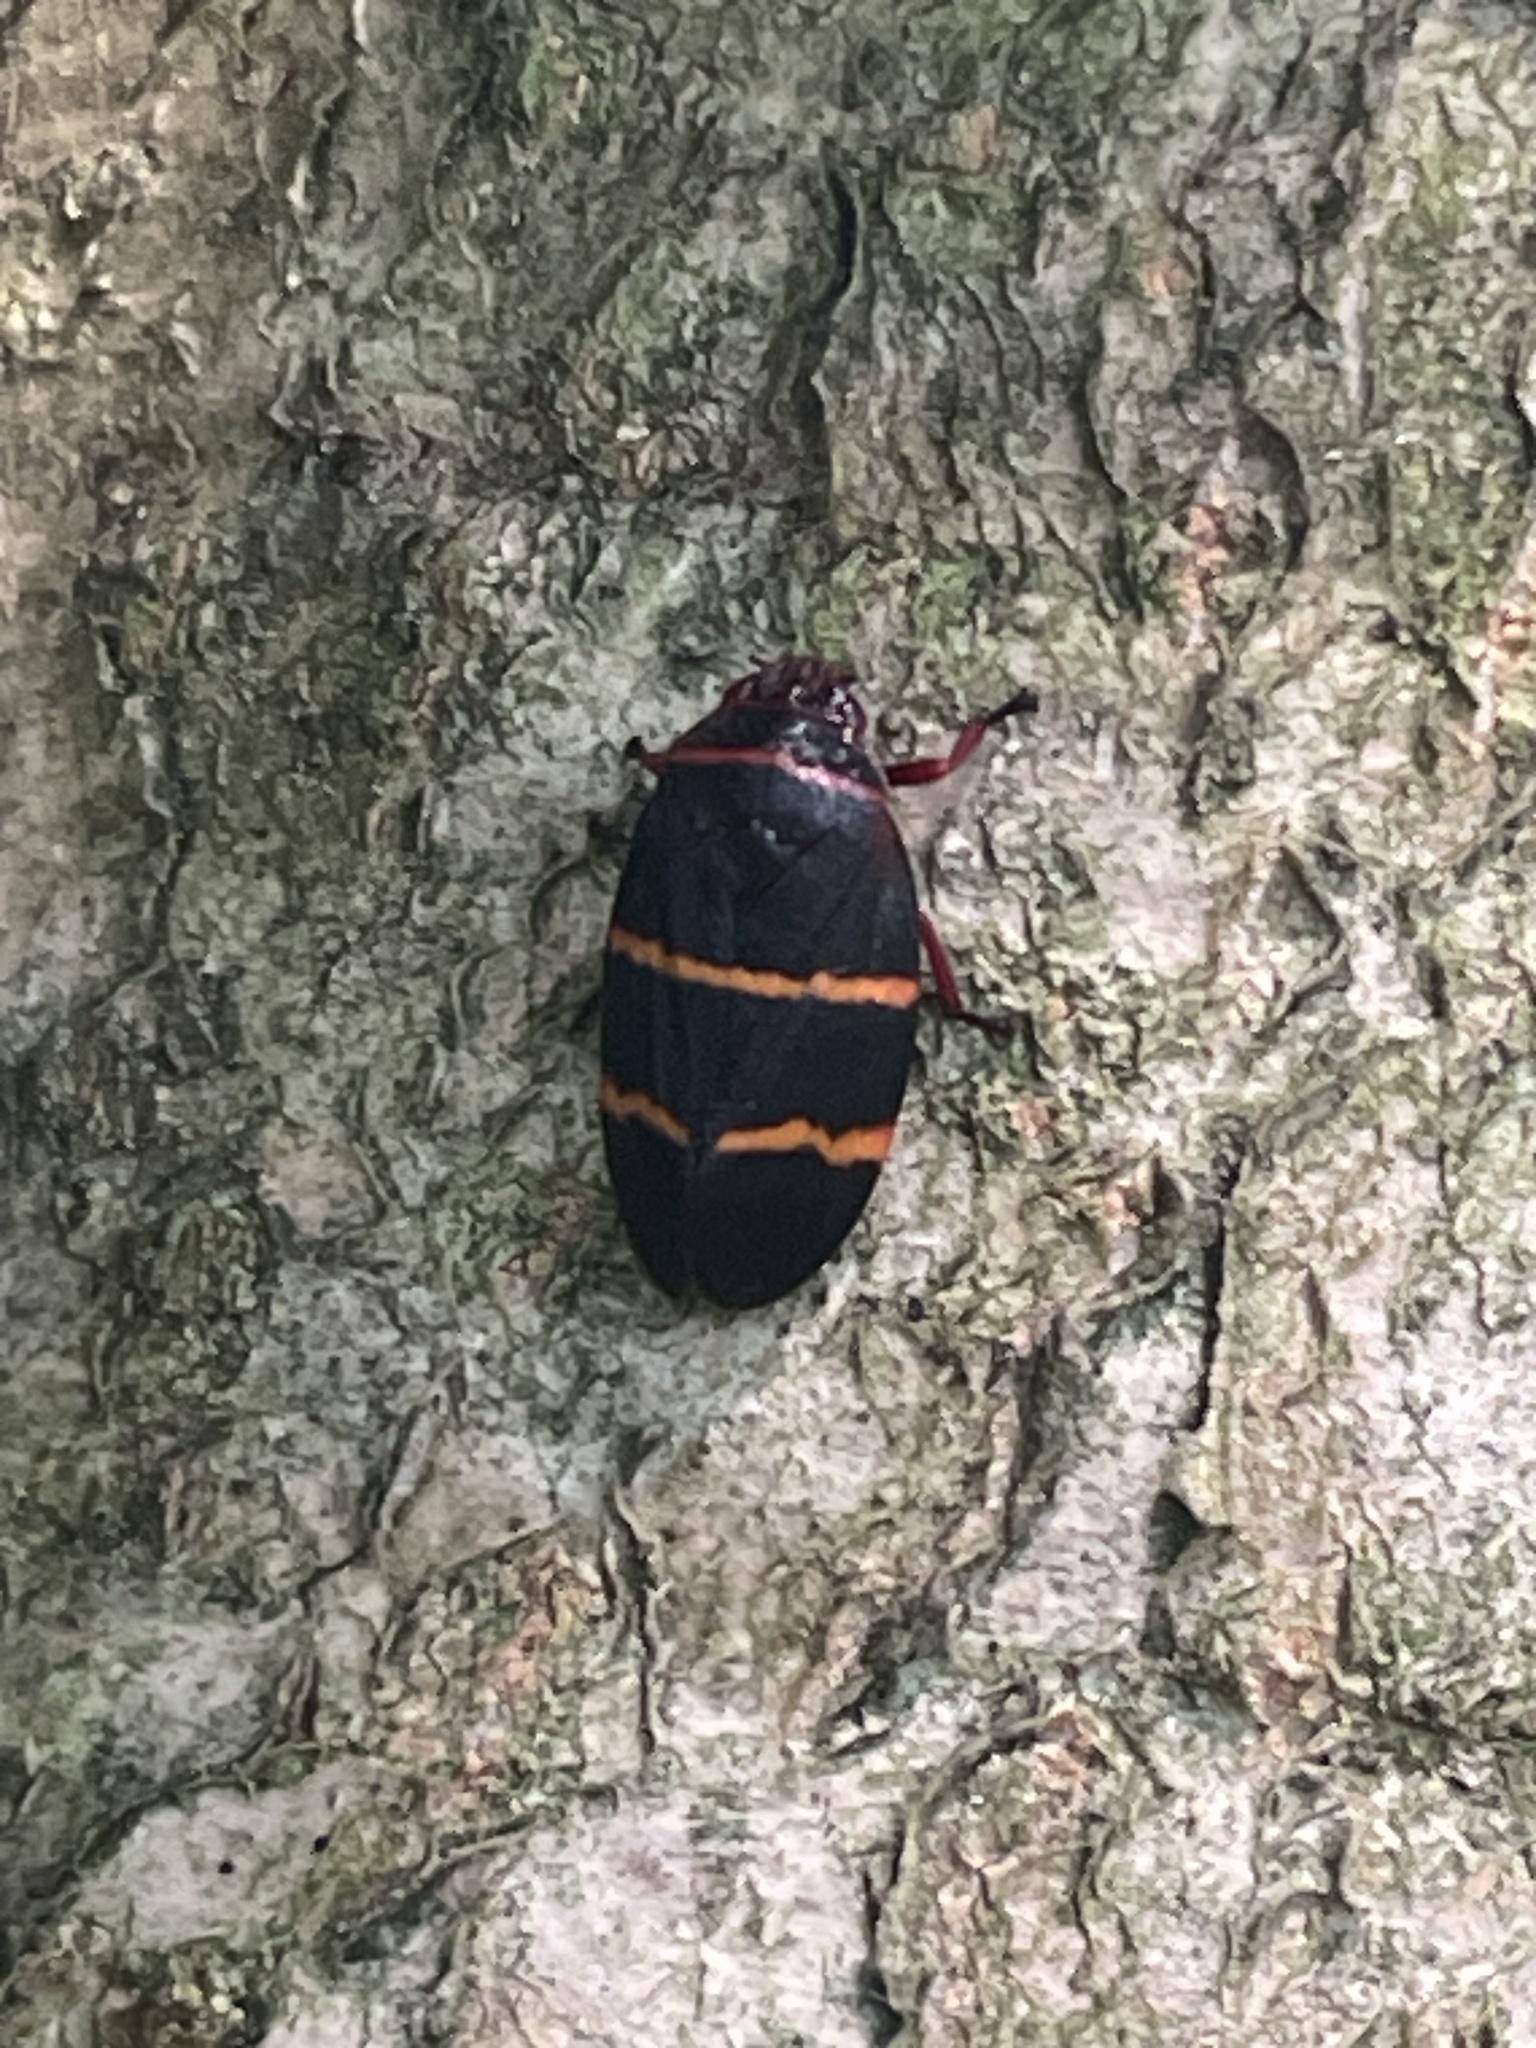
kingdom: Animalia
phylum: Arthropoda
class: Insecta
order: Hemiptera
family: Cercopidae
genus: Prosapia
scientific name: Prosapia bicincta
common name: Twolined spittlebug
